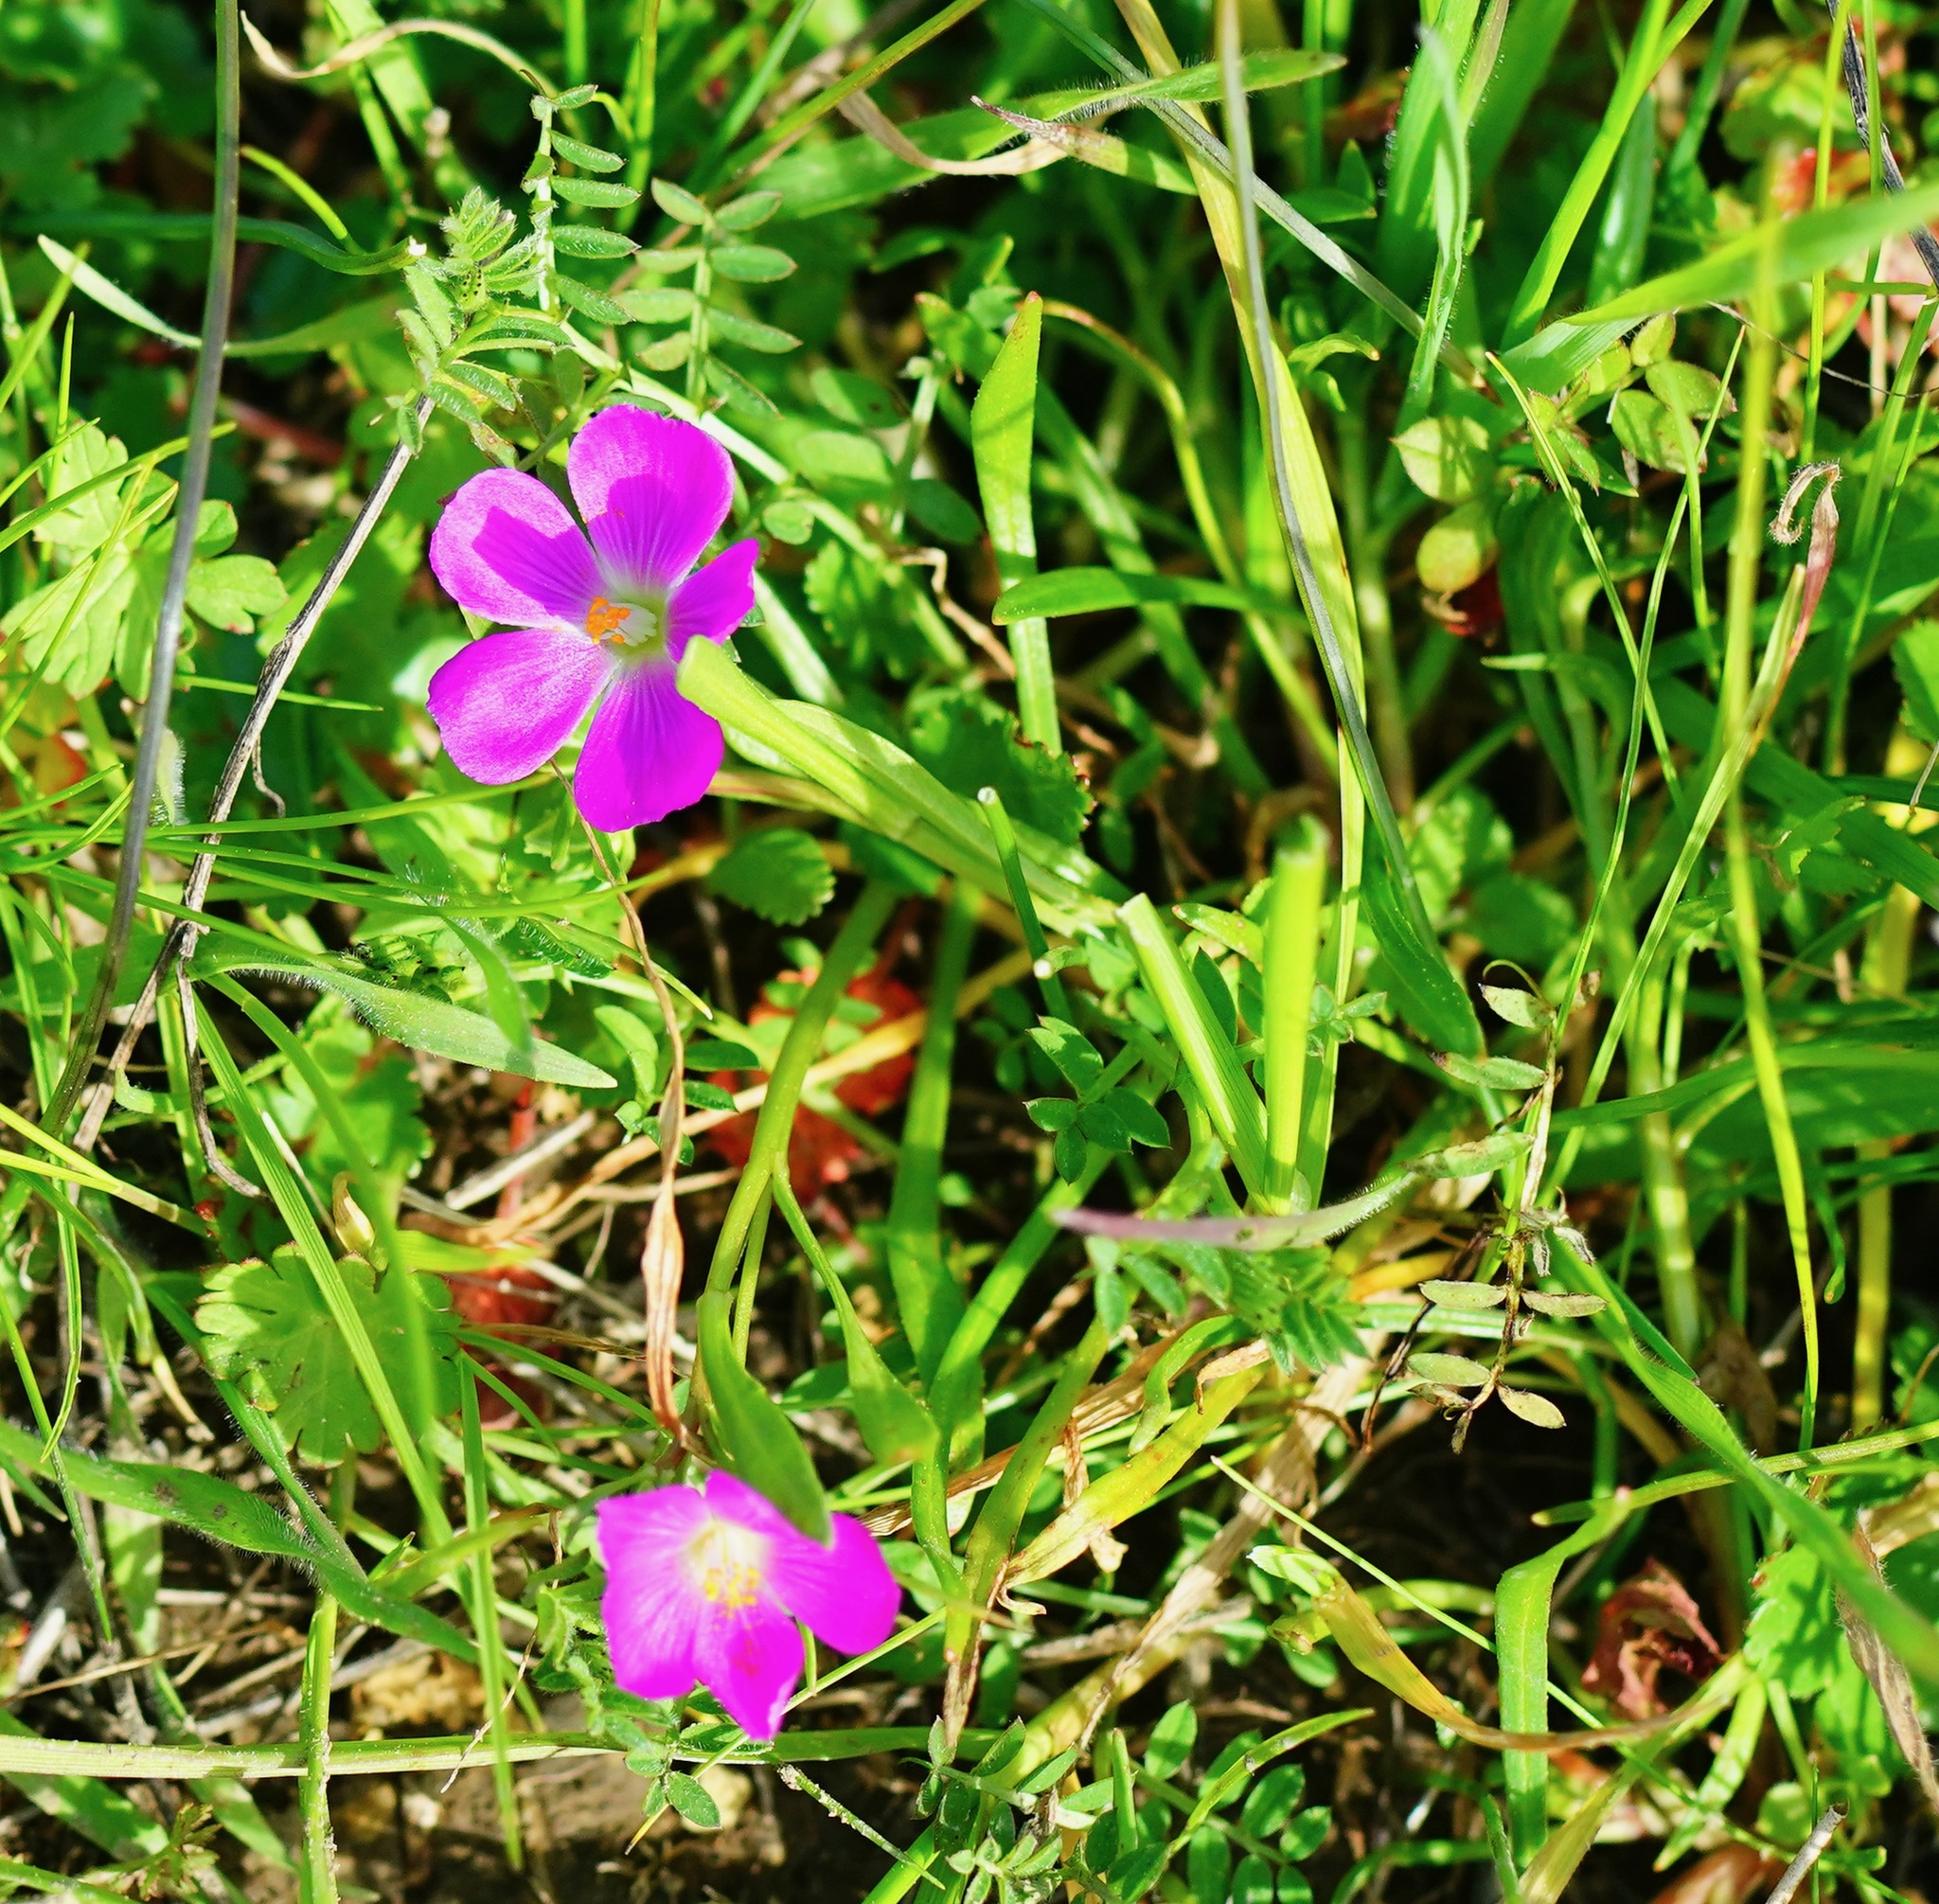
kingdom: Plantae
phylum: Tracheophyta
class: Magnoliopsida
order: Caryophyllales
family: Montiaceae
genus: Calandrinia
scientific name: Calandrinia menziesii
